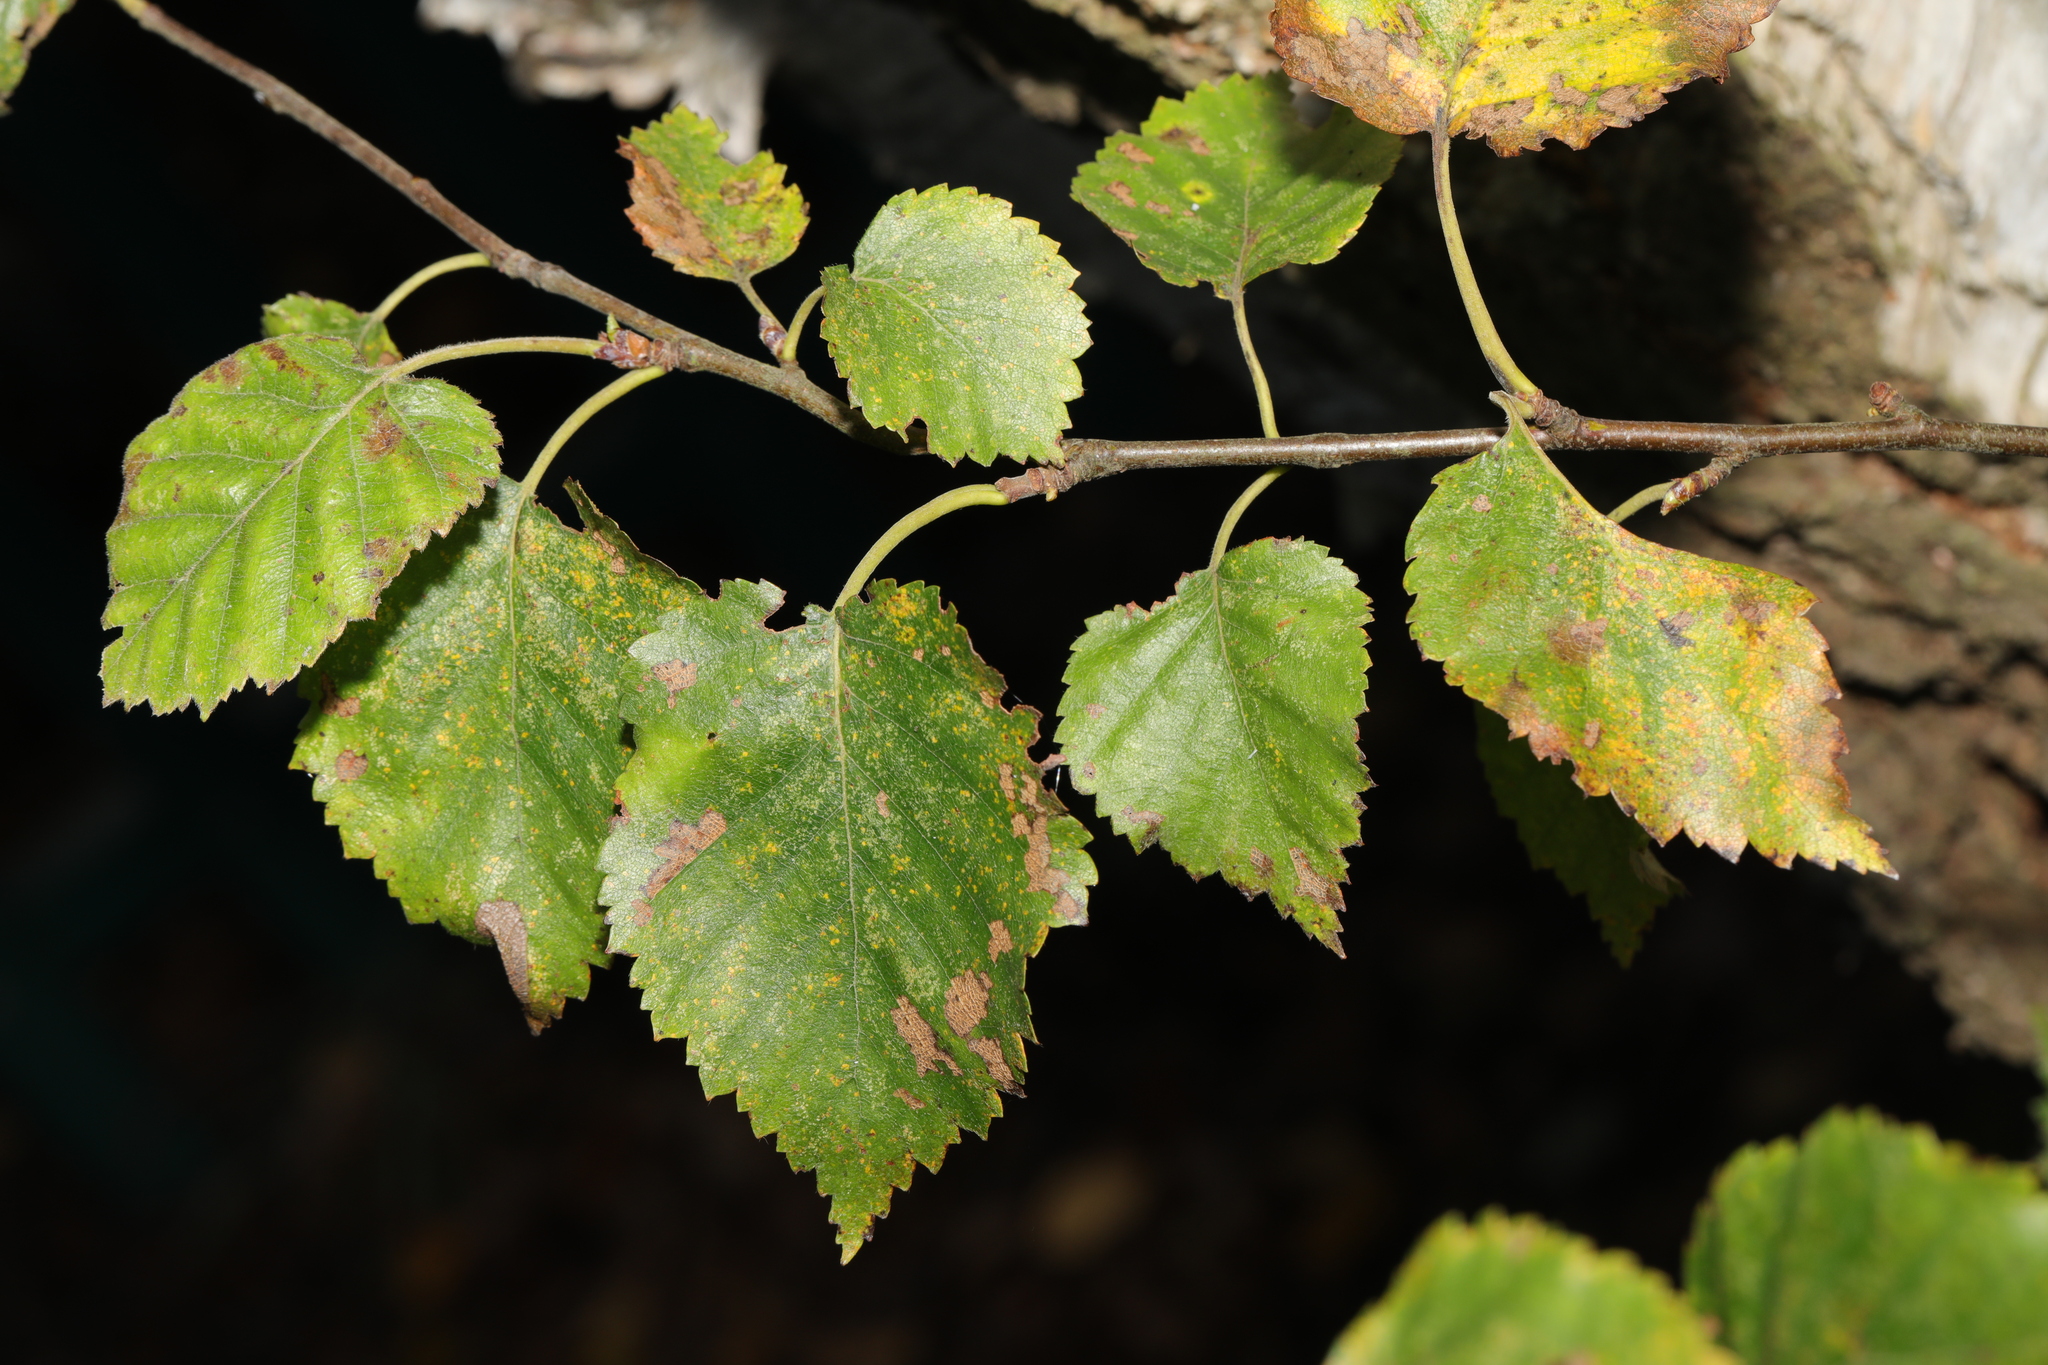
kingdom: Plantae
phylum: Tracheophyta
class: Magnoliopsida
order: Fagales
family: Betulaceae
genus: Betula
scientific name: Betula pubescens
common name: Downy birch
